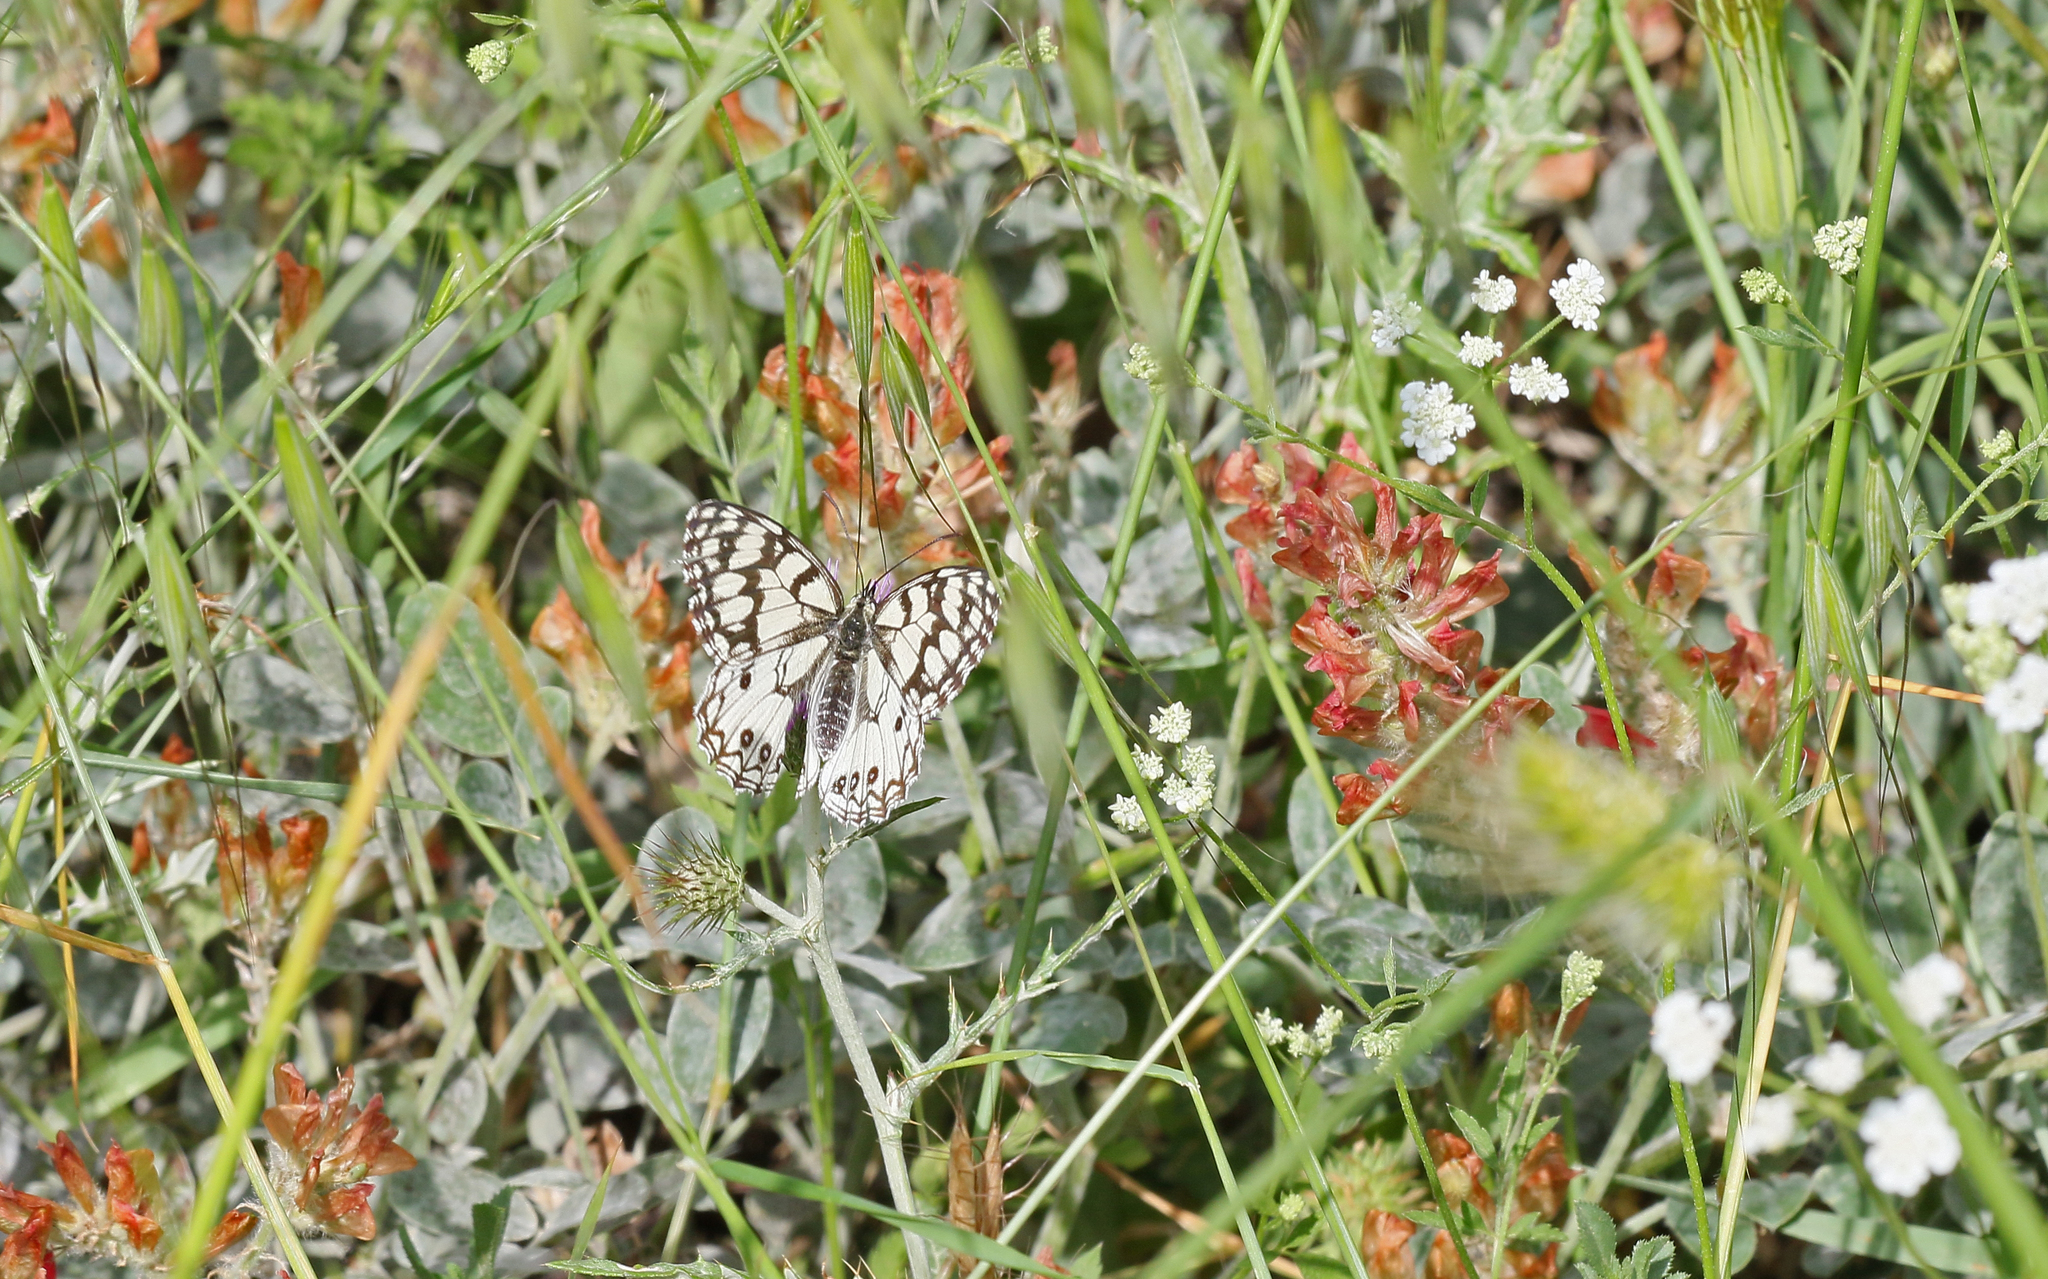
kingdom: Animalia
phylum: Arthropoda
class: Insecta
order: Lepidoptera
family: Nymphalidae
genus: Melanargia
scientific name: Melanargia ines
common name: Spanish marbled white
